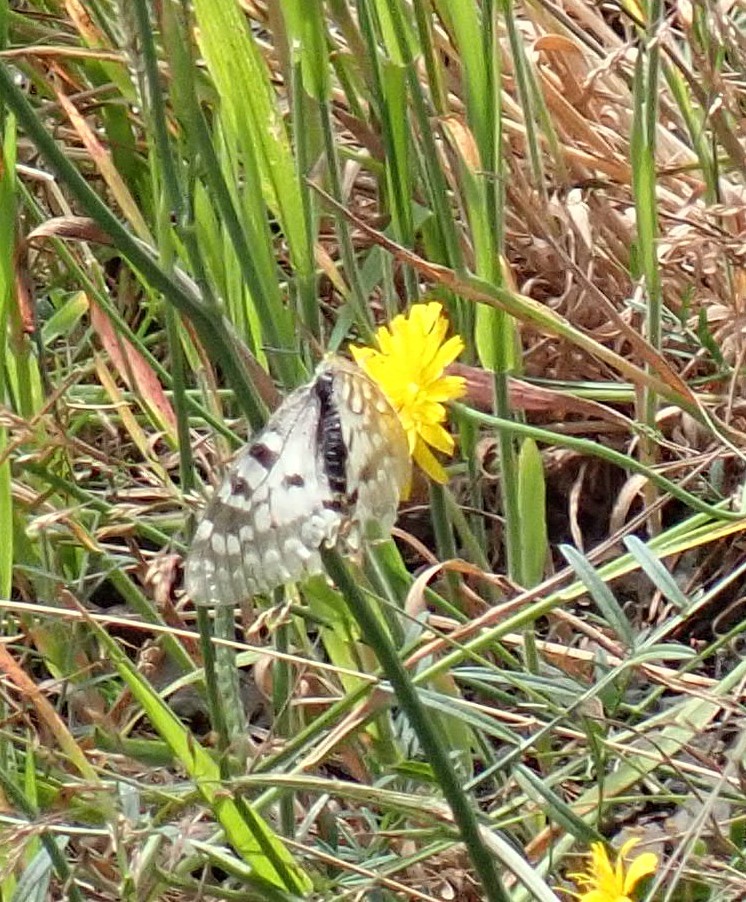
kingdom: Animalia
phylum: Arthropoda
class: Insecta
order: Lepidoptera
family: Papilionidae
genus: Parnassius
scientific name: Parnassius clodius
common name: American apollo
